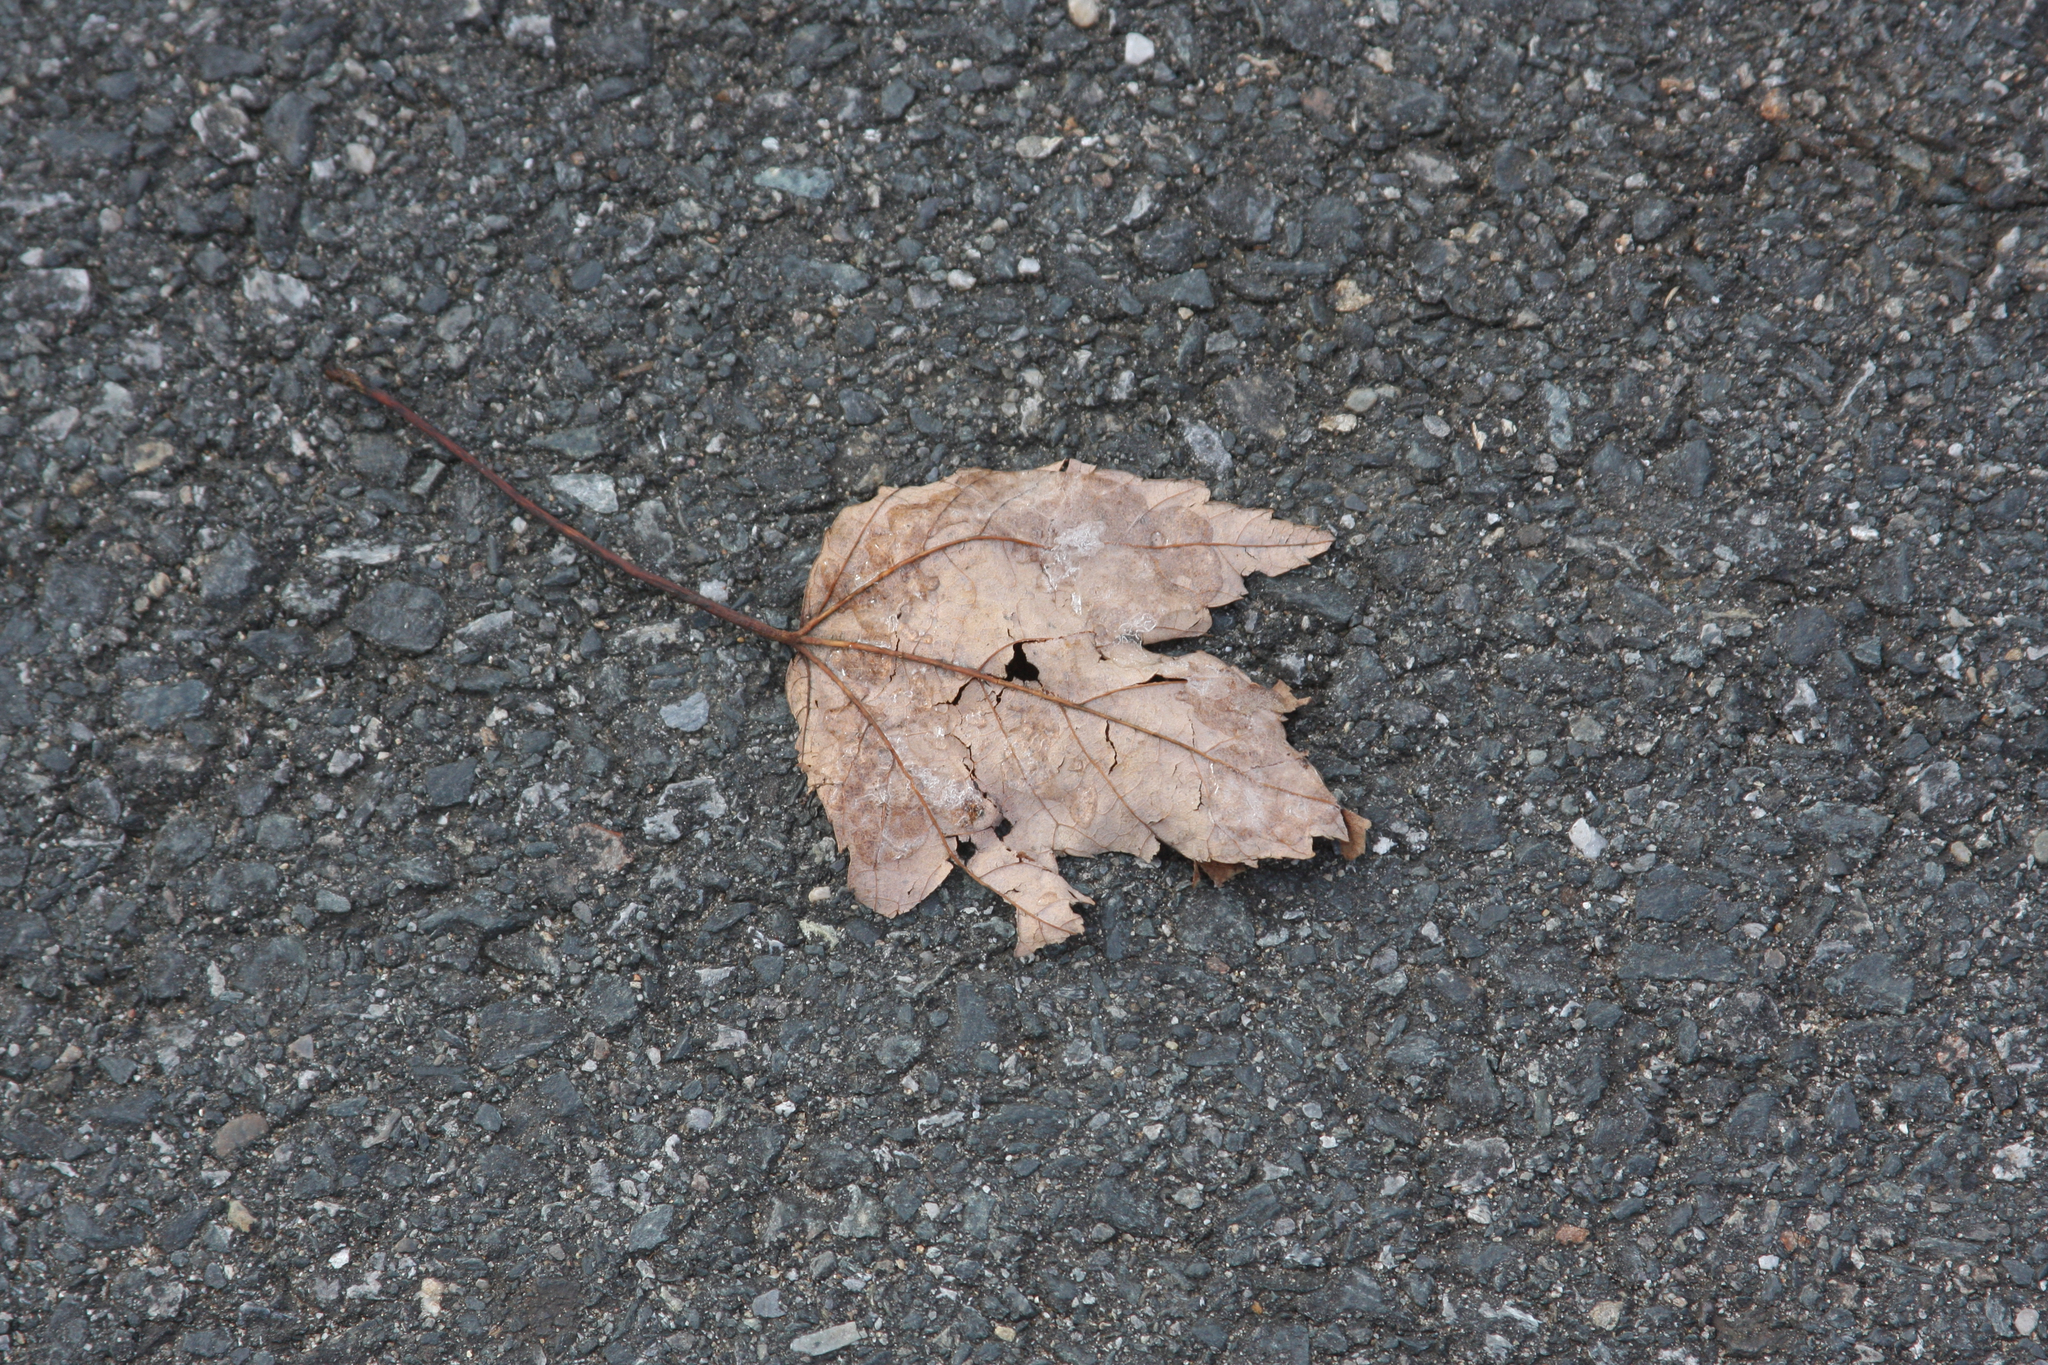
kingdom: Plantae
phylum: Tracheophyta
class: Magnoliopsida
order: Sapindales
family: Sapindaceae
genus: Acer
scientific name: Acer rubrum
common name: Red maple
